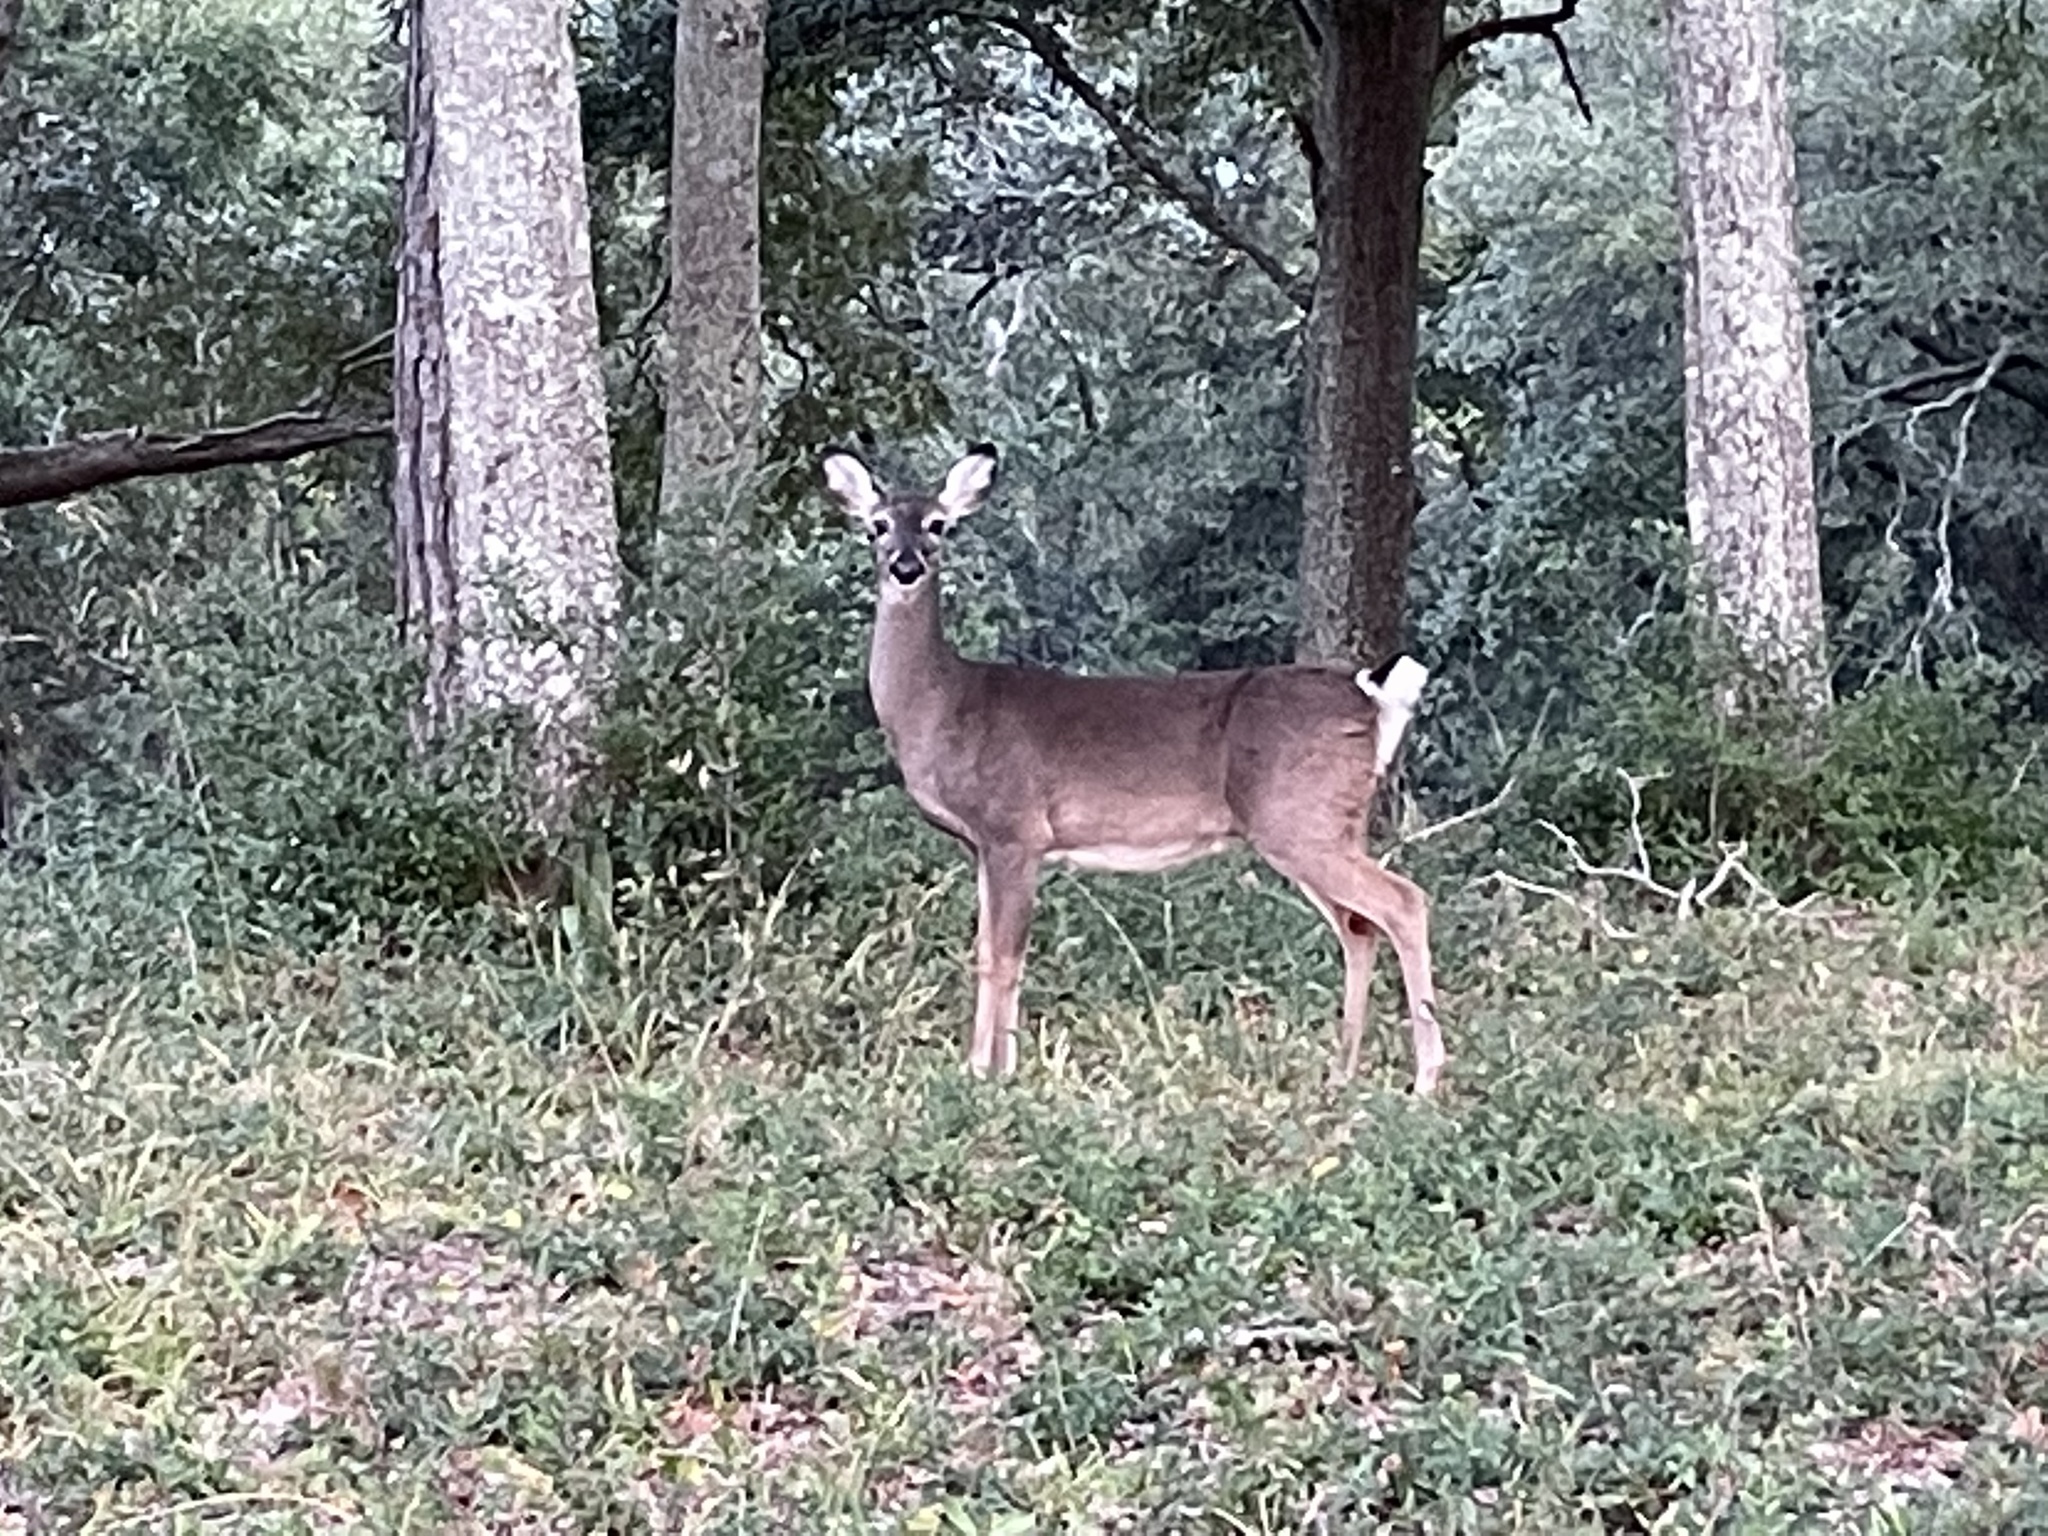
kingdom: Animalia
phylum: Chordata
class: Mammalia
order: Artiodactyla
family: Cervidae
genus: Odocoileus
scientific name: Odocoileus virginianus
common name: White-tailed deer
